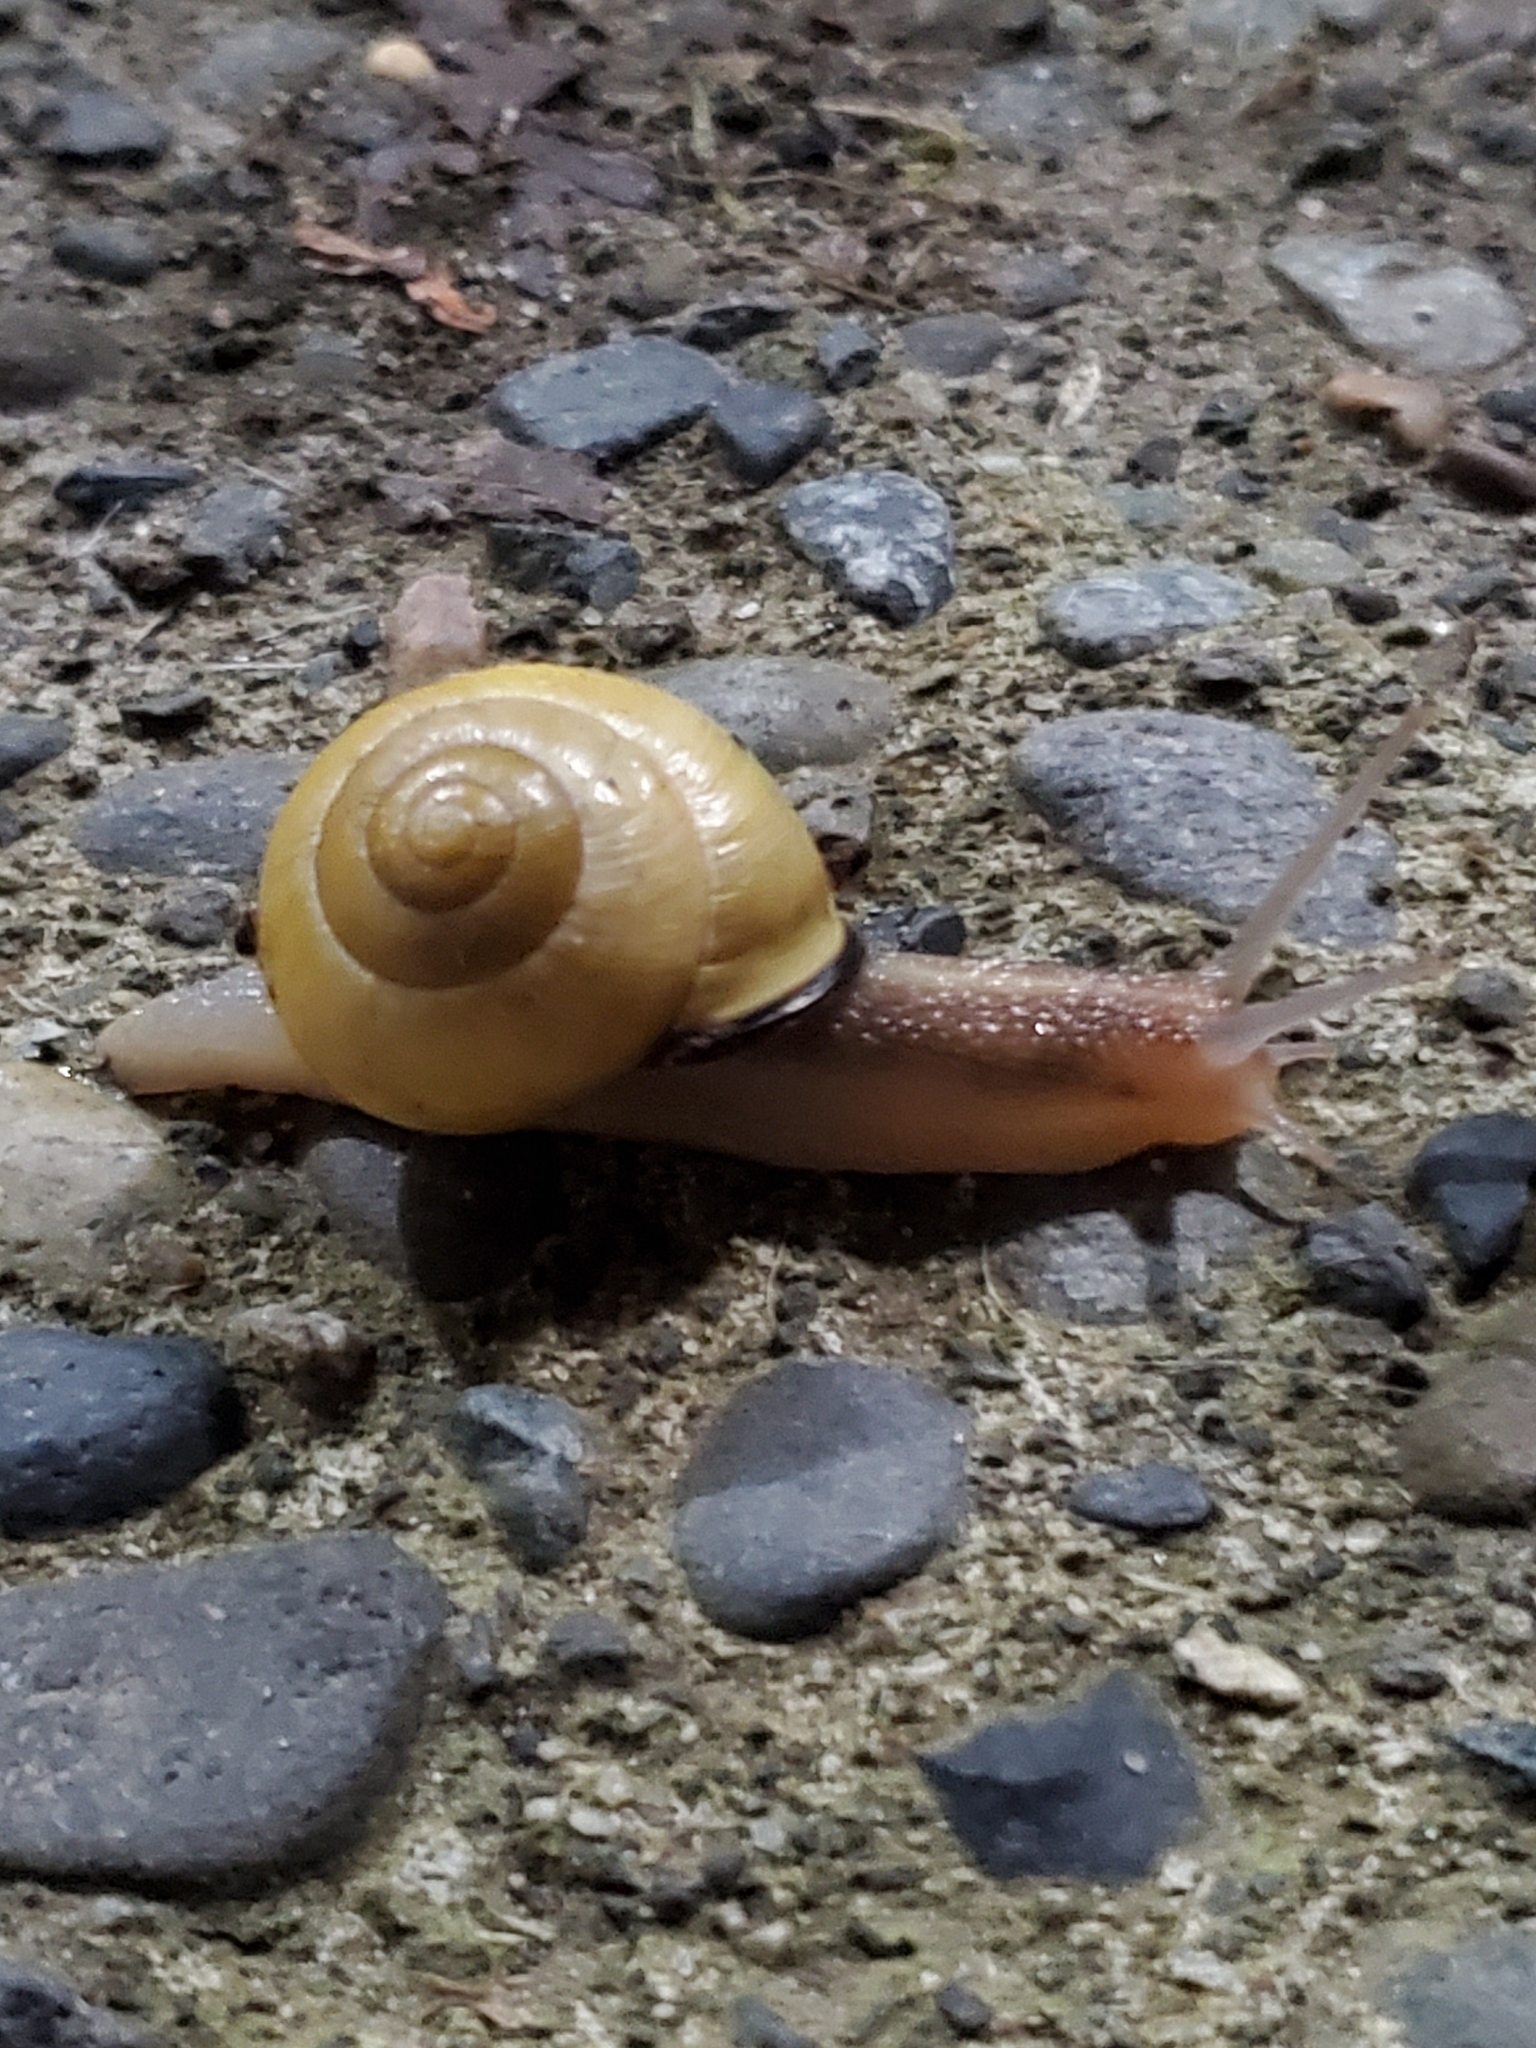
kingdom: Animalia
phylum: Mollusca
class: Gastropoda
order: Stylommatophora
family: Helicidae
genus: Cepaea
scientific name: Cepaea nemoralis
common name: Grovesnail
